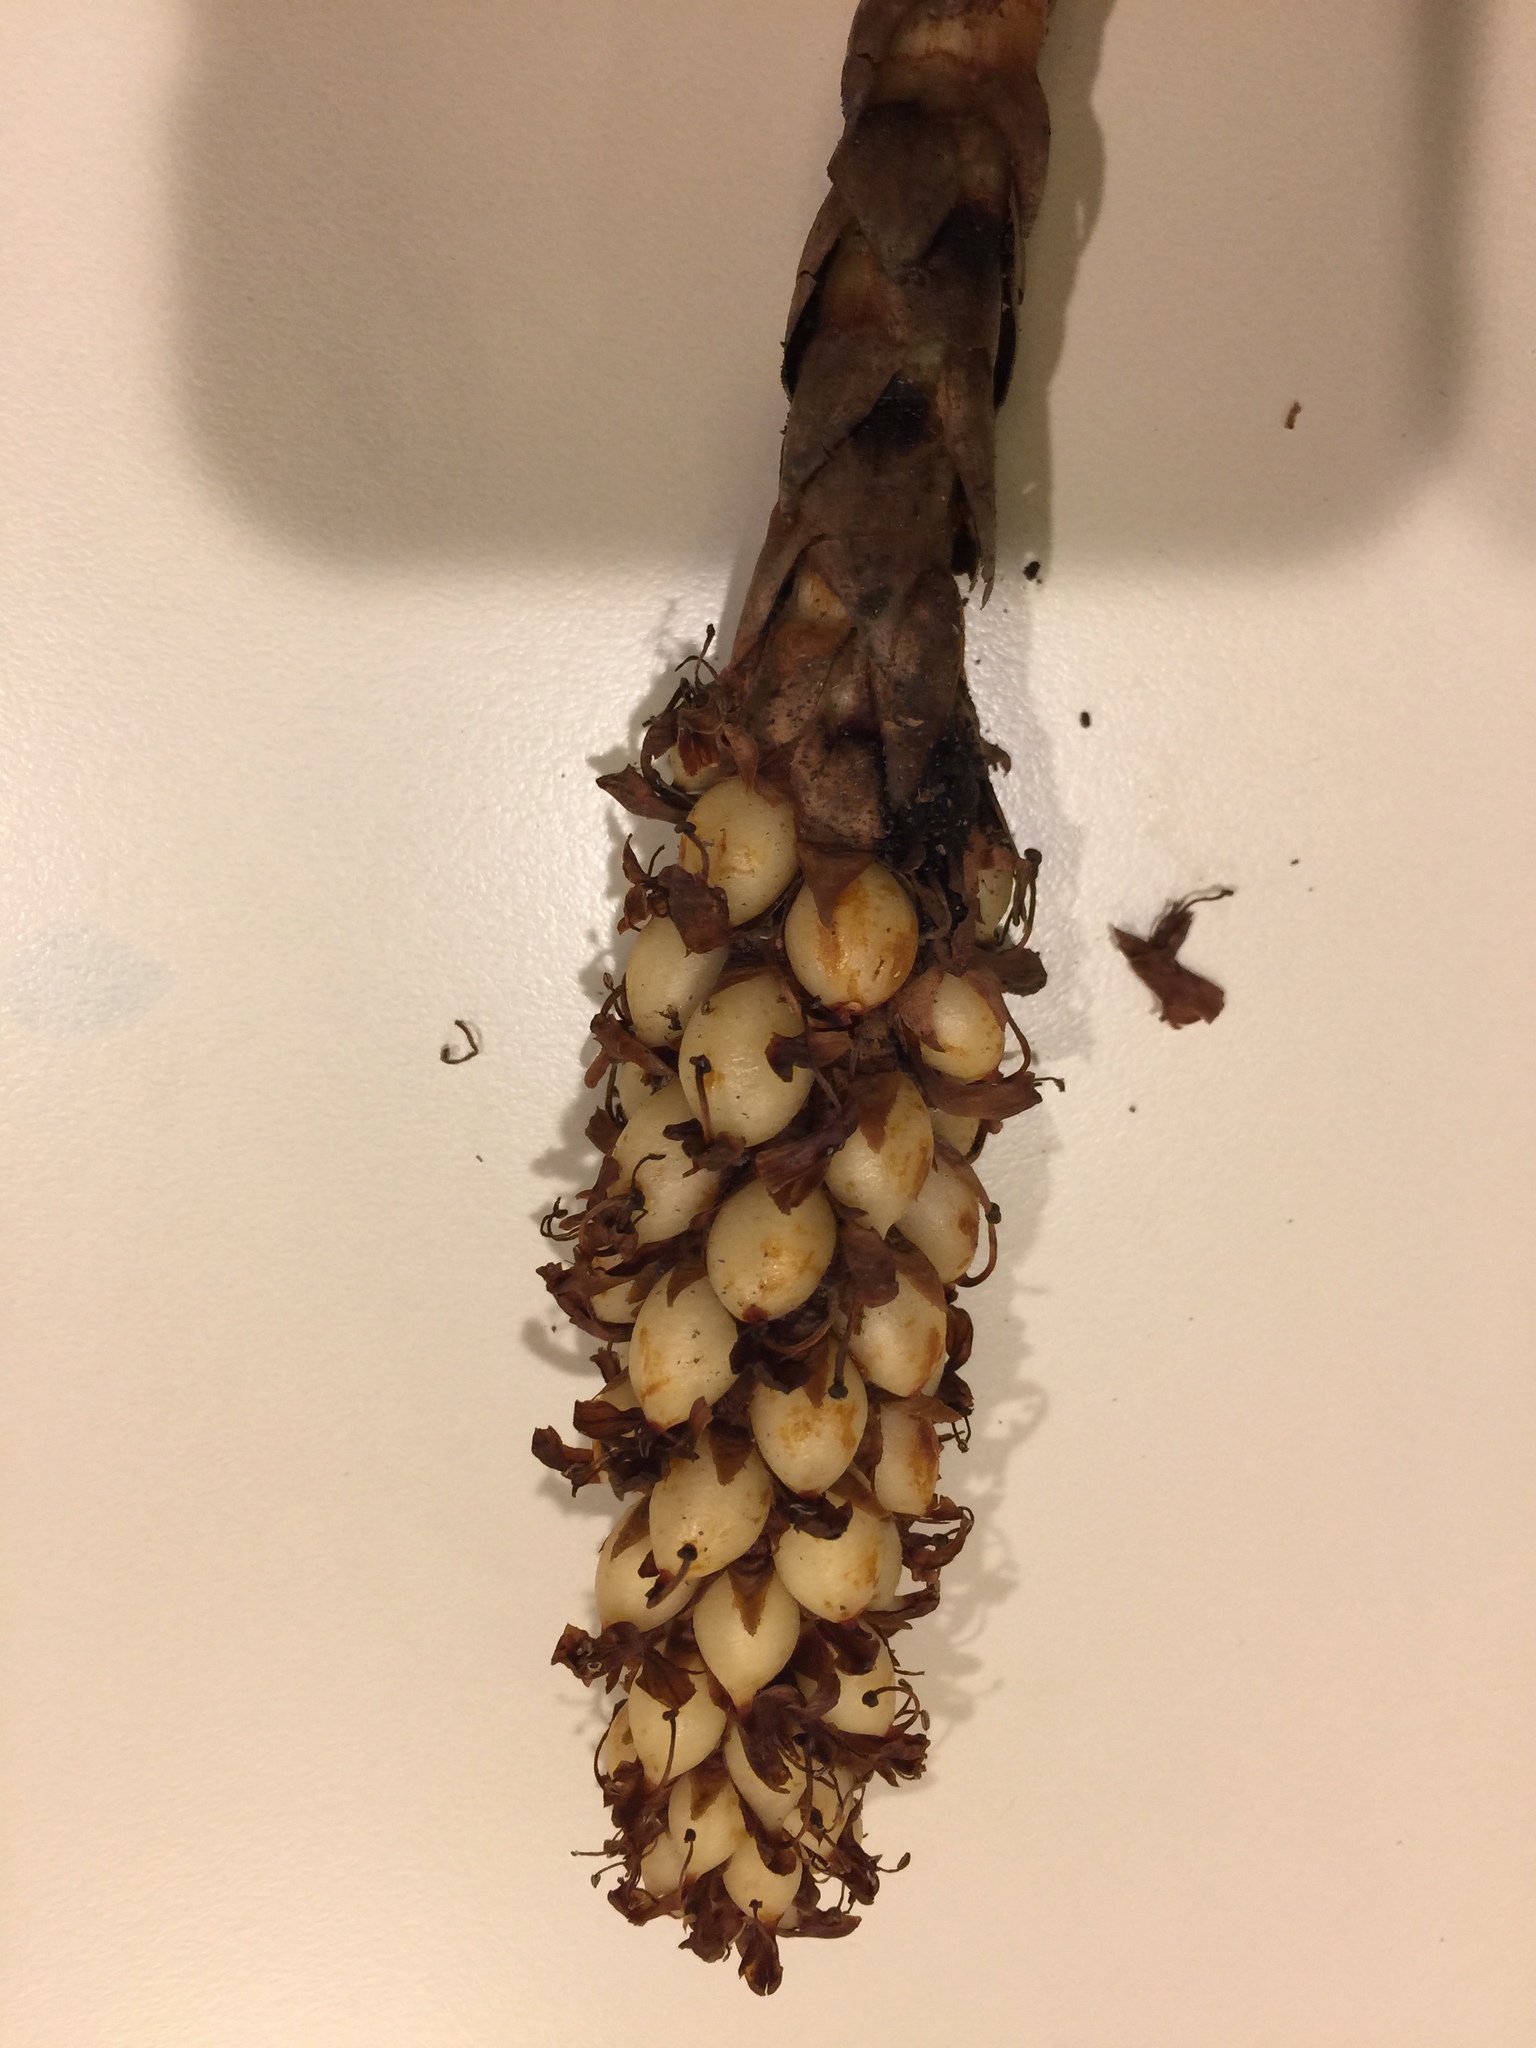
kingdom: Plantae
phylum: Tracheophyta
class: Magnoliopsida
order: Lamiales
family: Orobanchaceae
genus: Conopholis
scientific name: Conopholis americana
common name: American cancer-root
